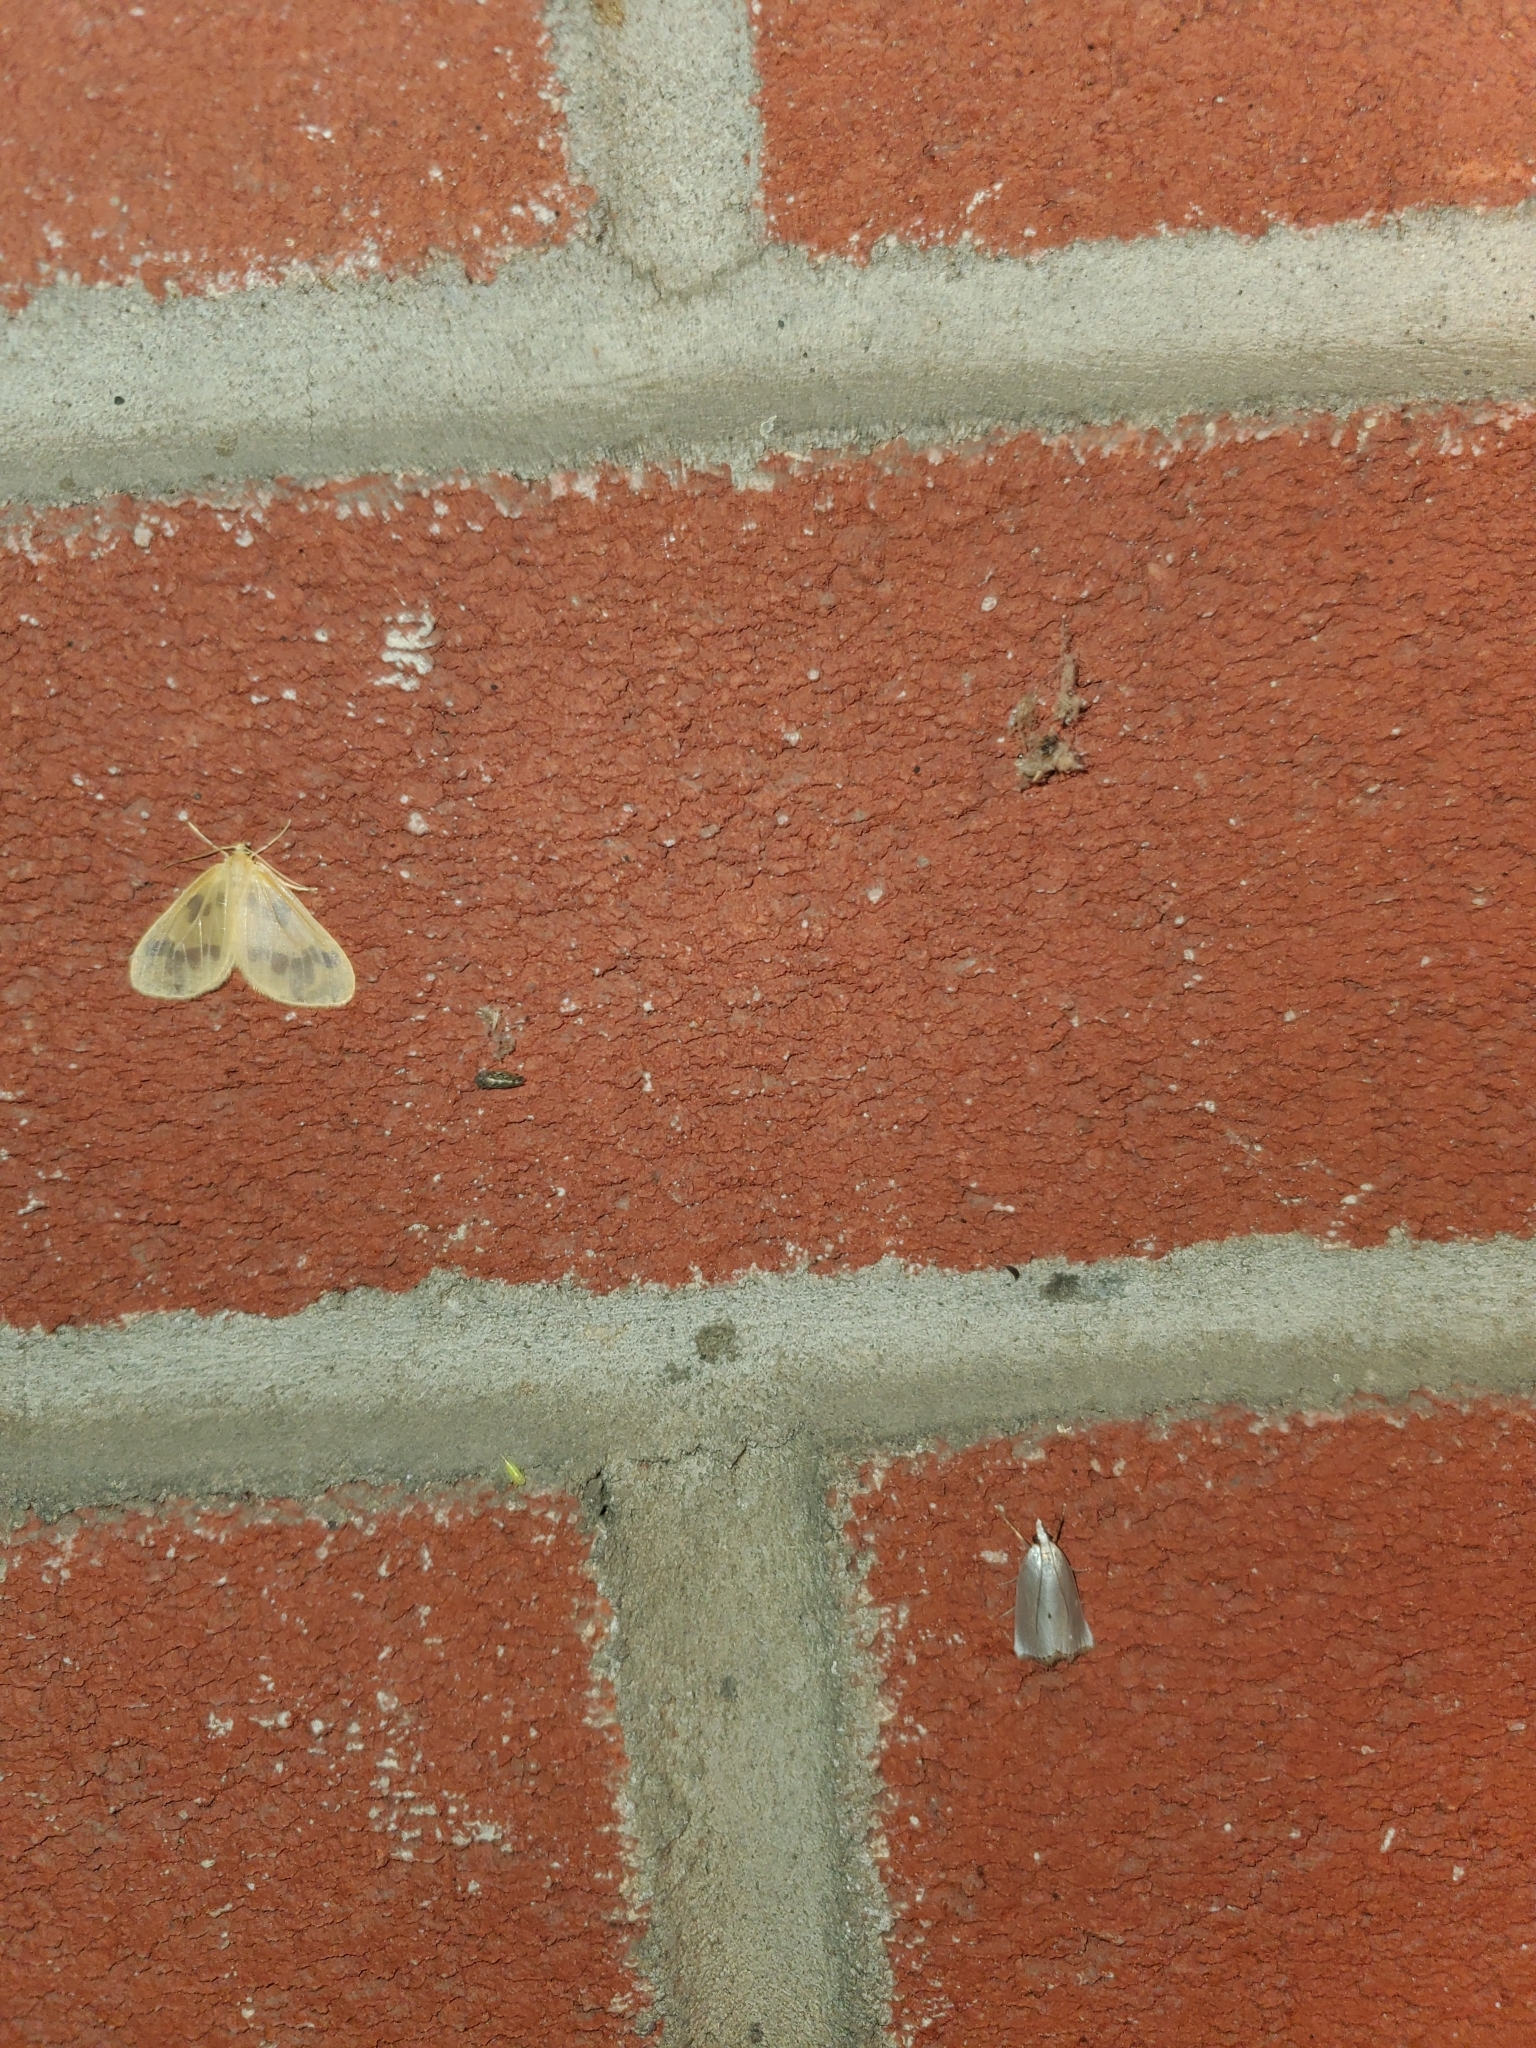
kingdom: Animalia
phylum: Arthropoda
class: Insecta
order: Lepidoptera
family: Crambidae
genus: Argyria
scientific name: Argyria nivalis
